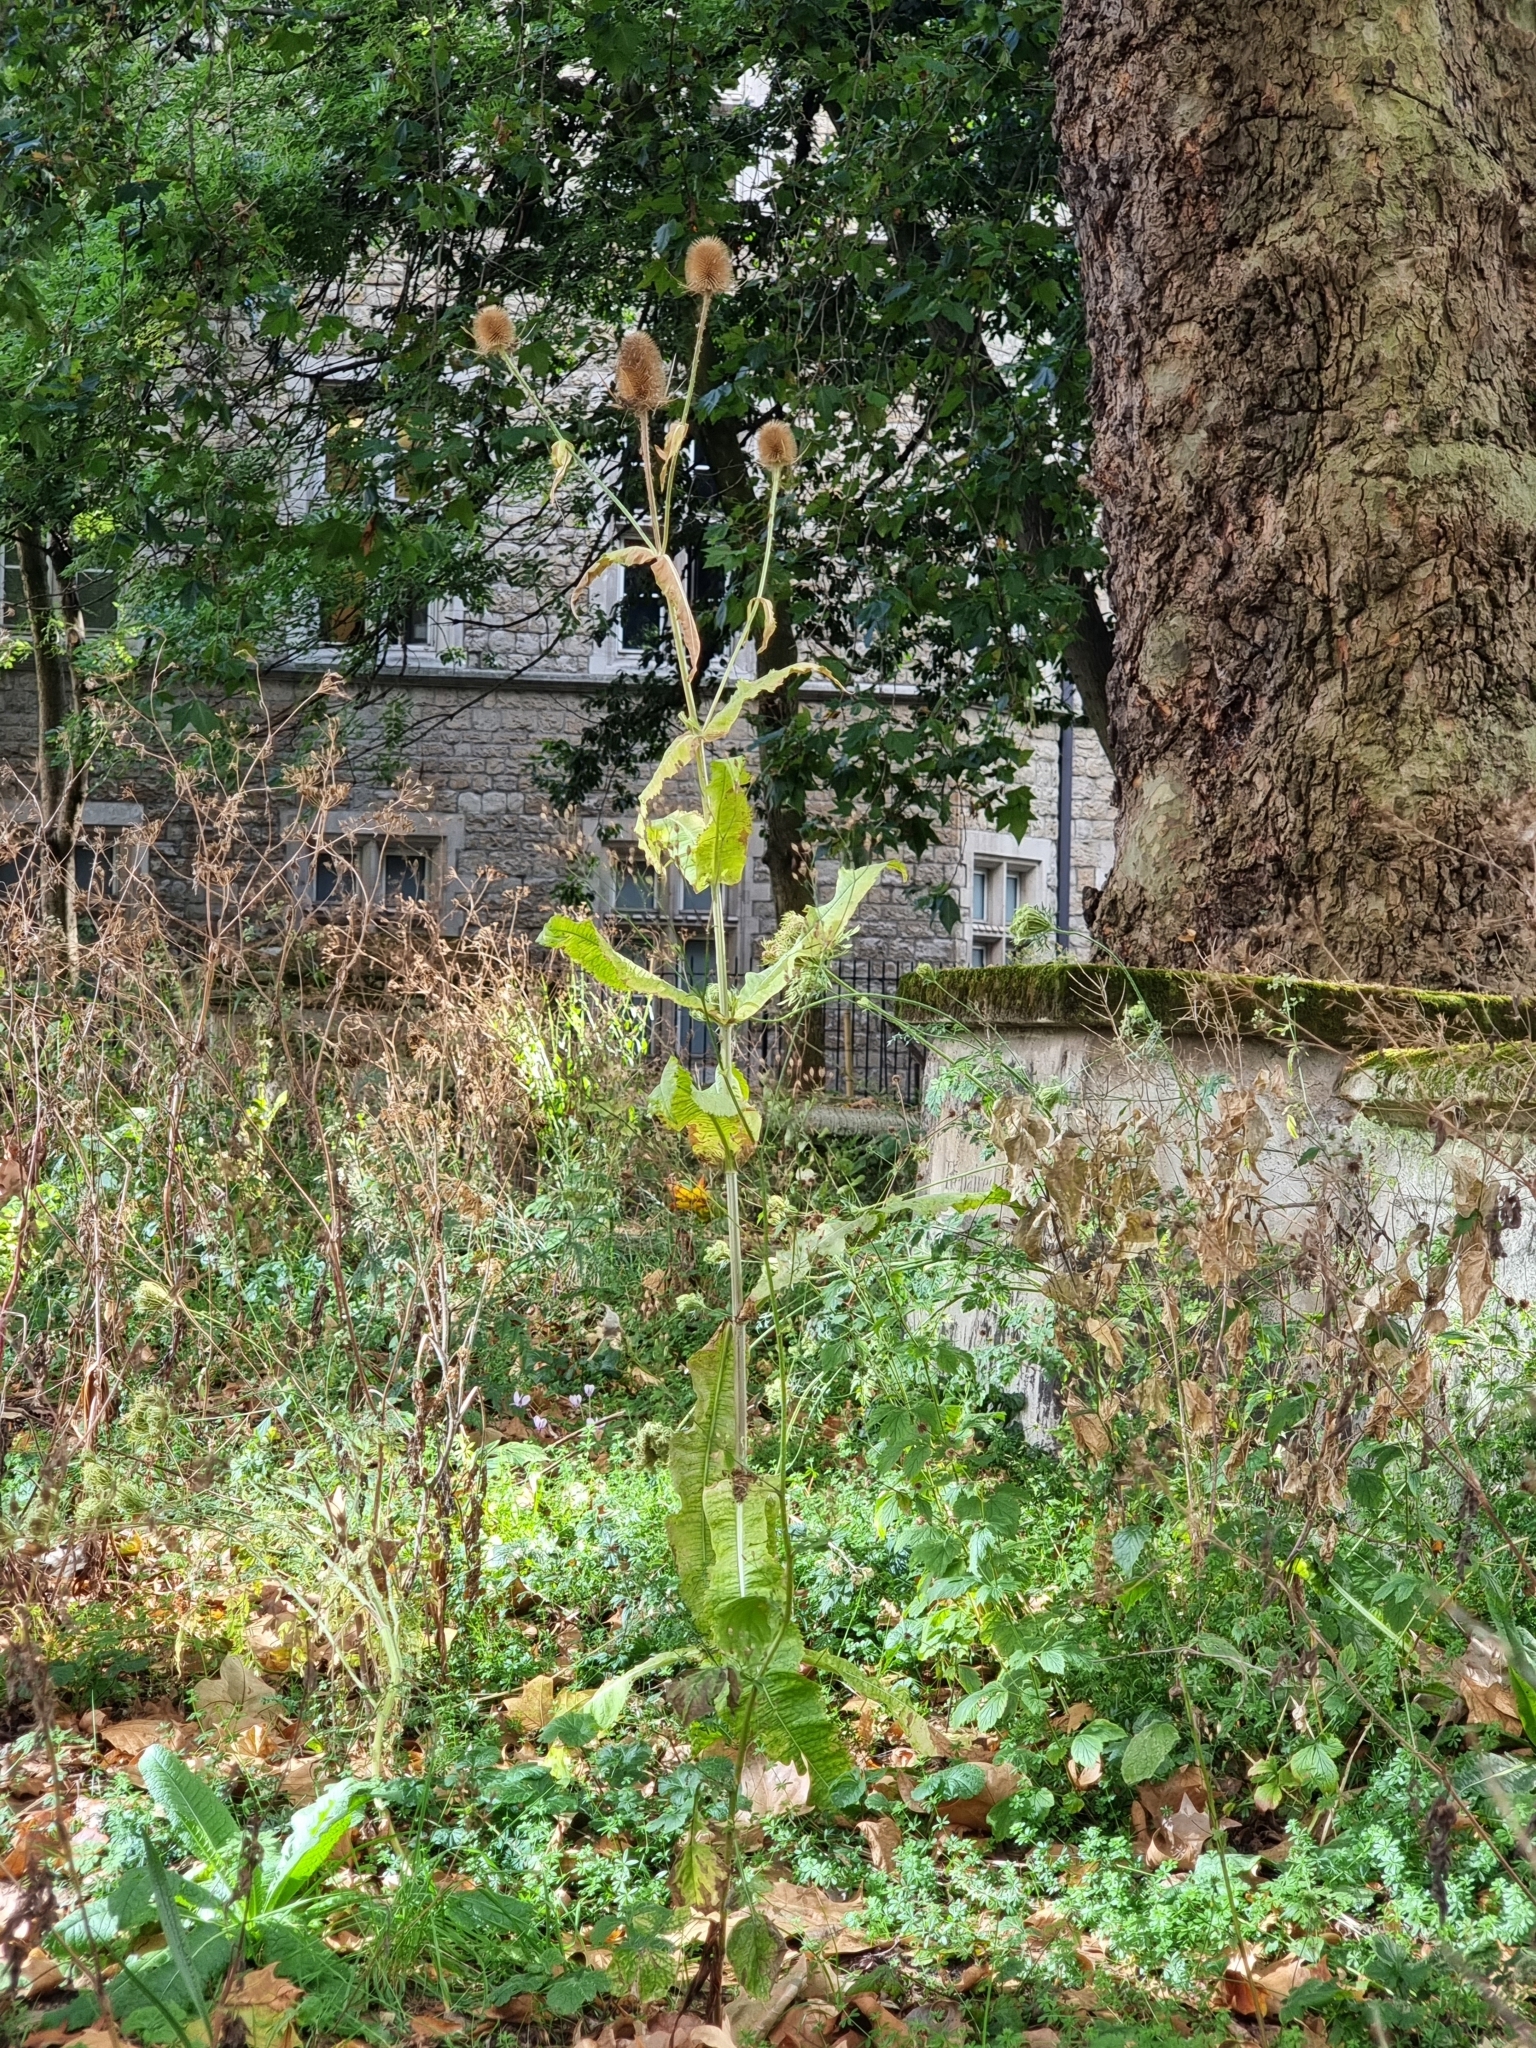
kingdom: Plantae
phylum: Tracheophyta
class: Magnoliopsida
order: Dipsacales
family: Caprifoliaceae
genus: Dipsacus
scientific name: Dipsacus fullonum
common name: Teasel
